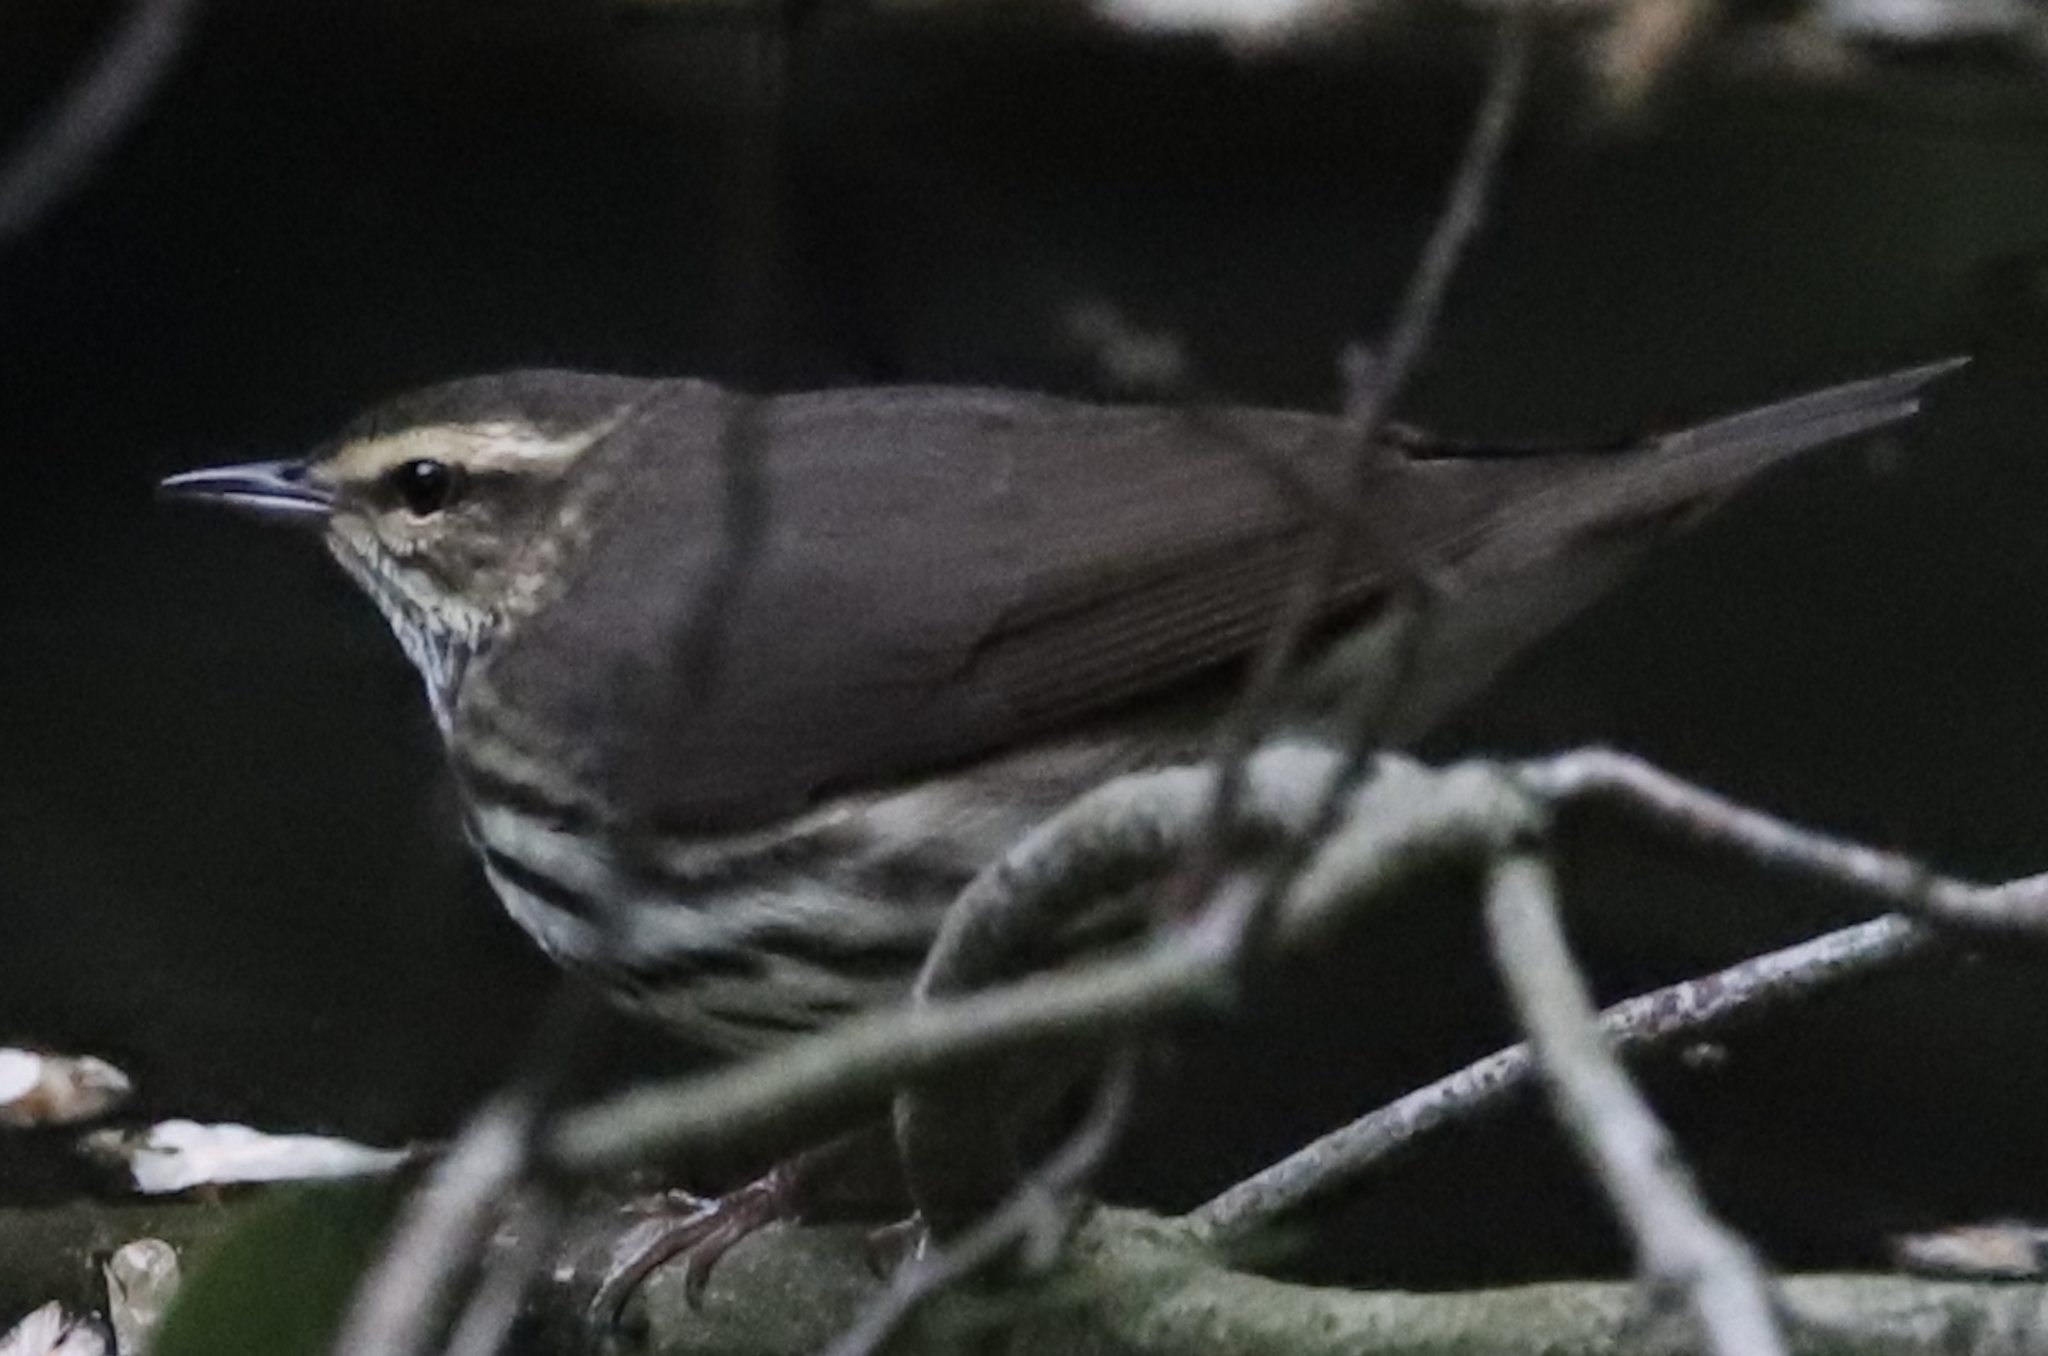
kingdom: Animalia
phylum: Chordata
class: Aves
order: Passeriformes
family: Parulidae
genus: Parkesia
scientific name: Parkesia noveboracensis
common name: Northern waterthrush
